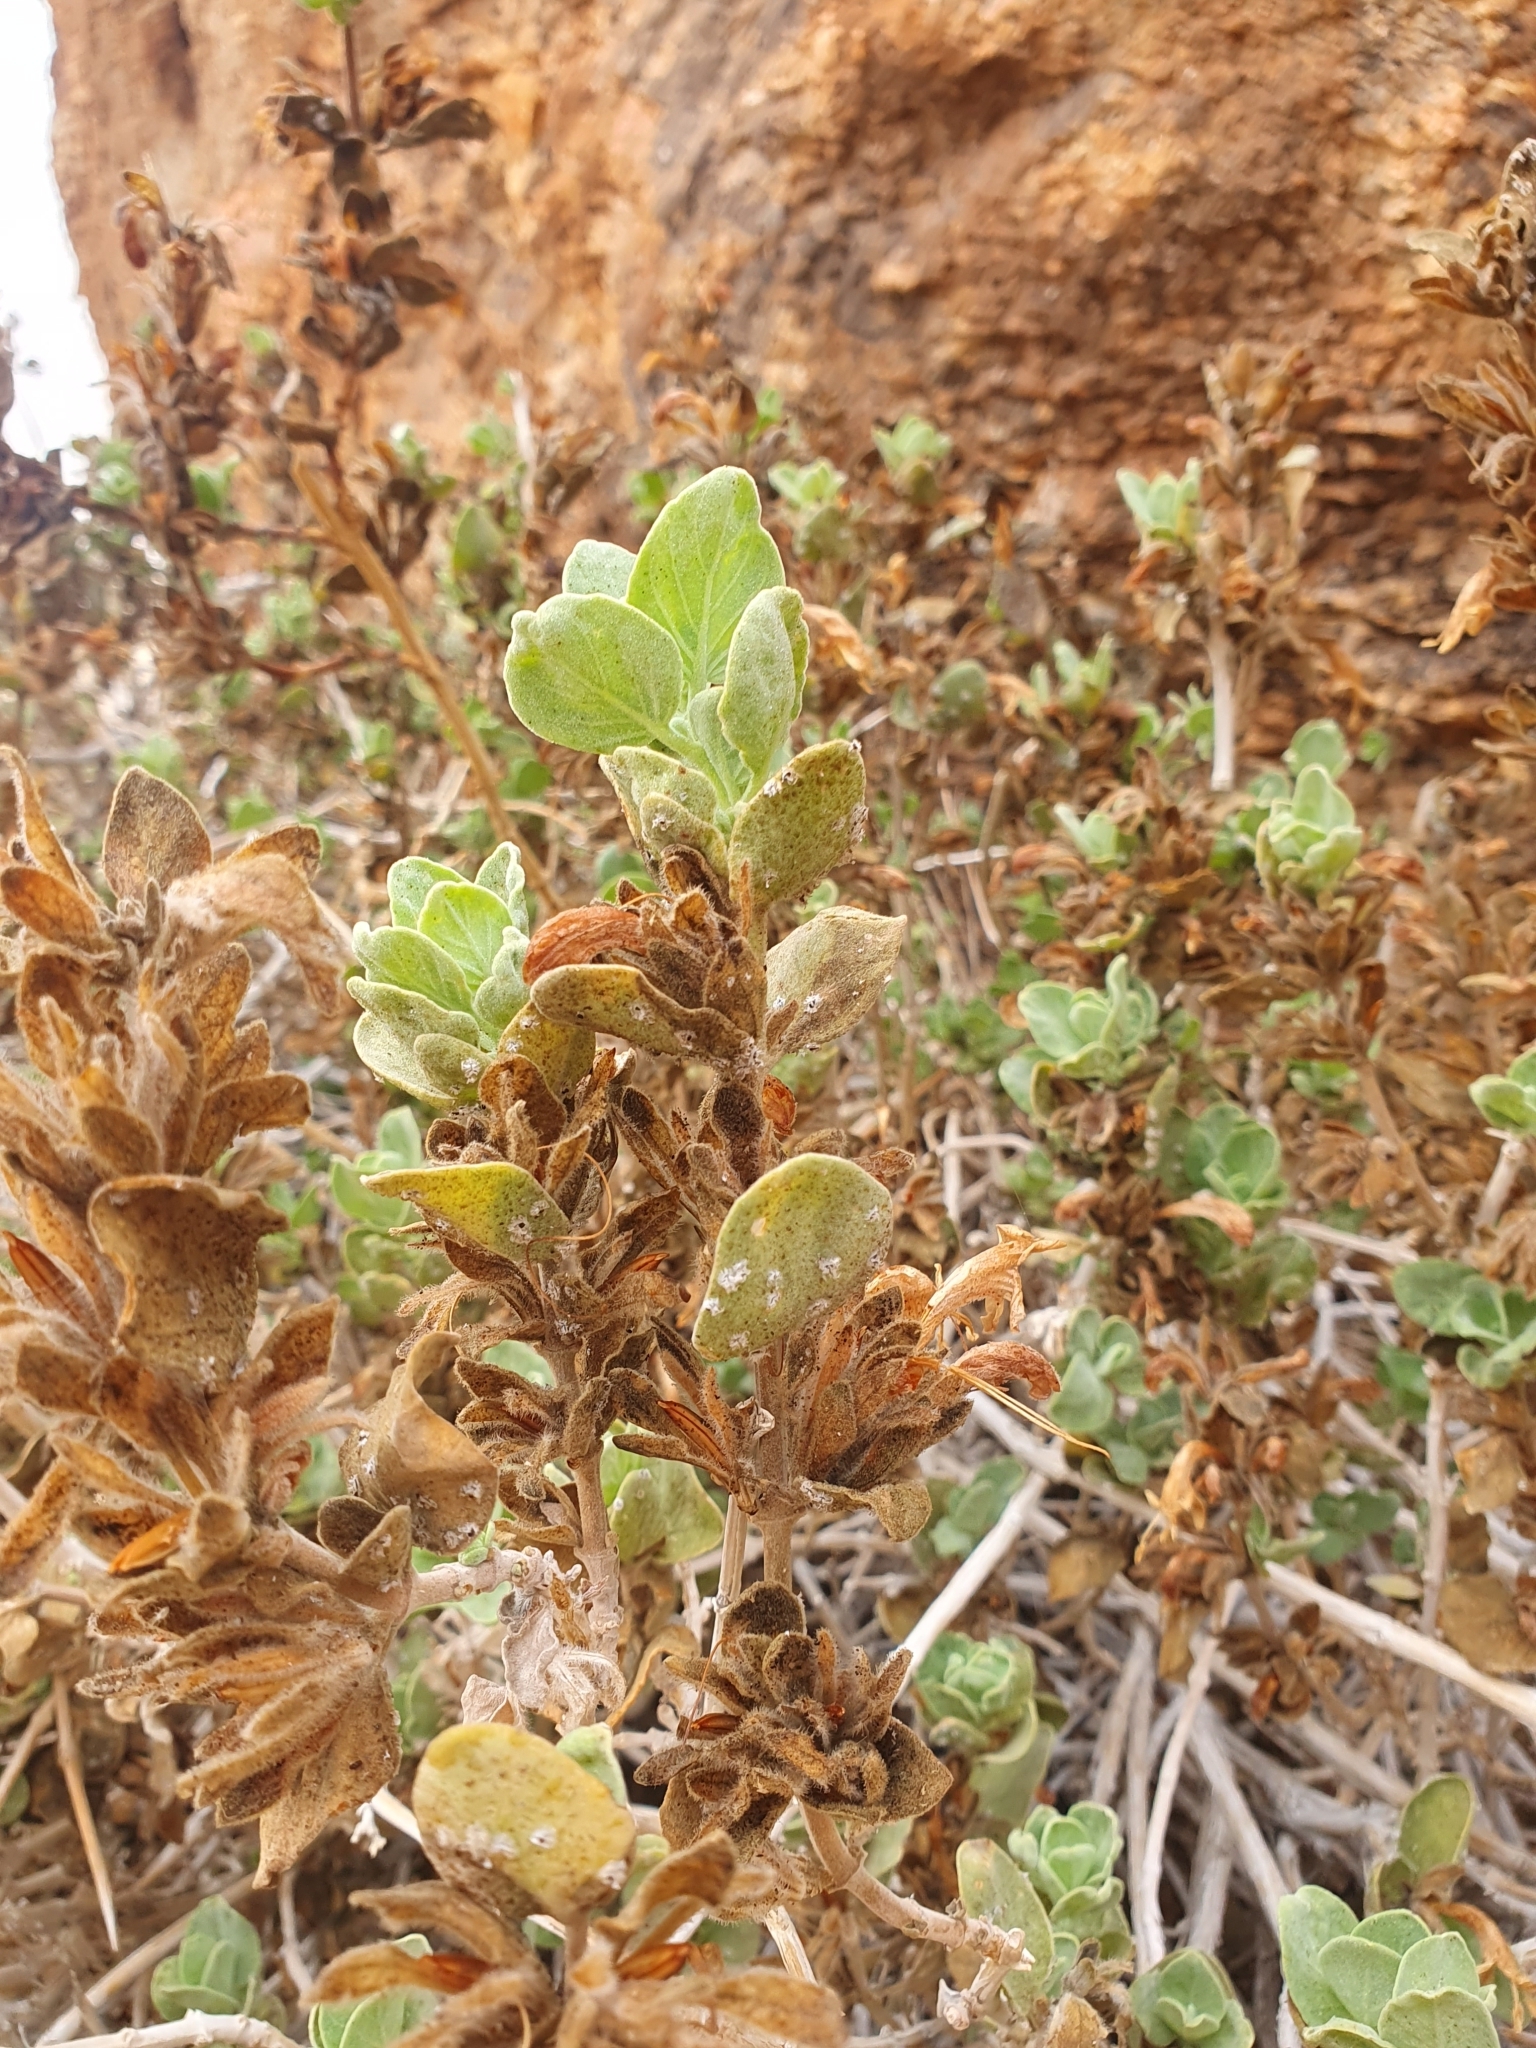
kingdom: Plantae
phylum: Tracheophyta
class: Magnoliopsida
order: Lamiales
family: Acanthaceae
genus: Dinteracanthus
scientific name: Dinteracanthus diversifolius
